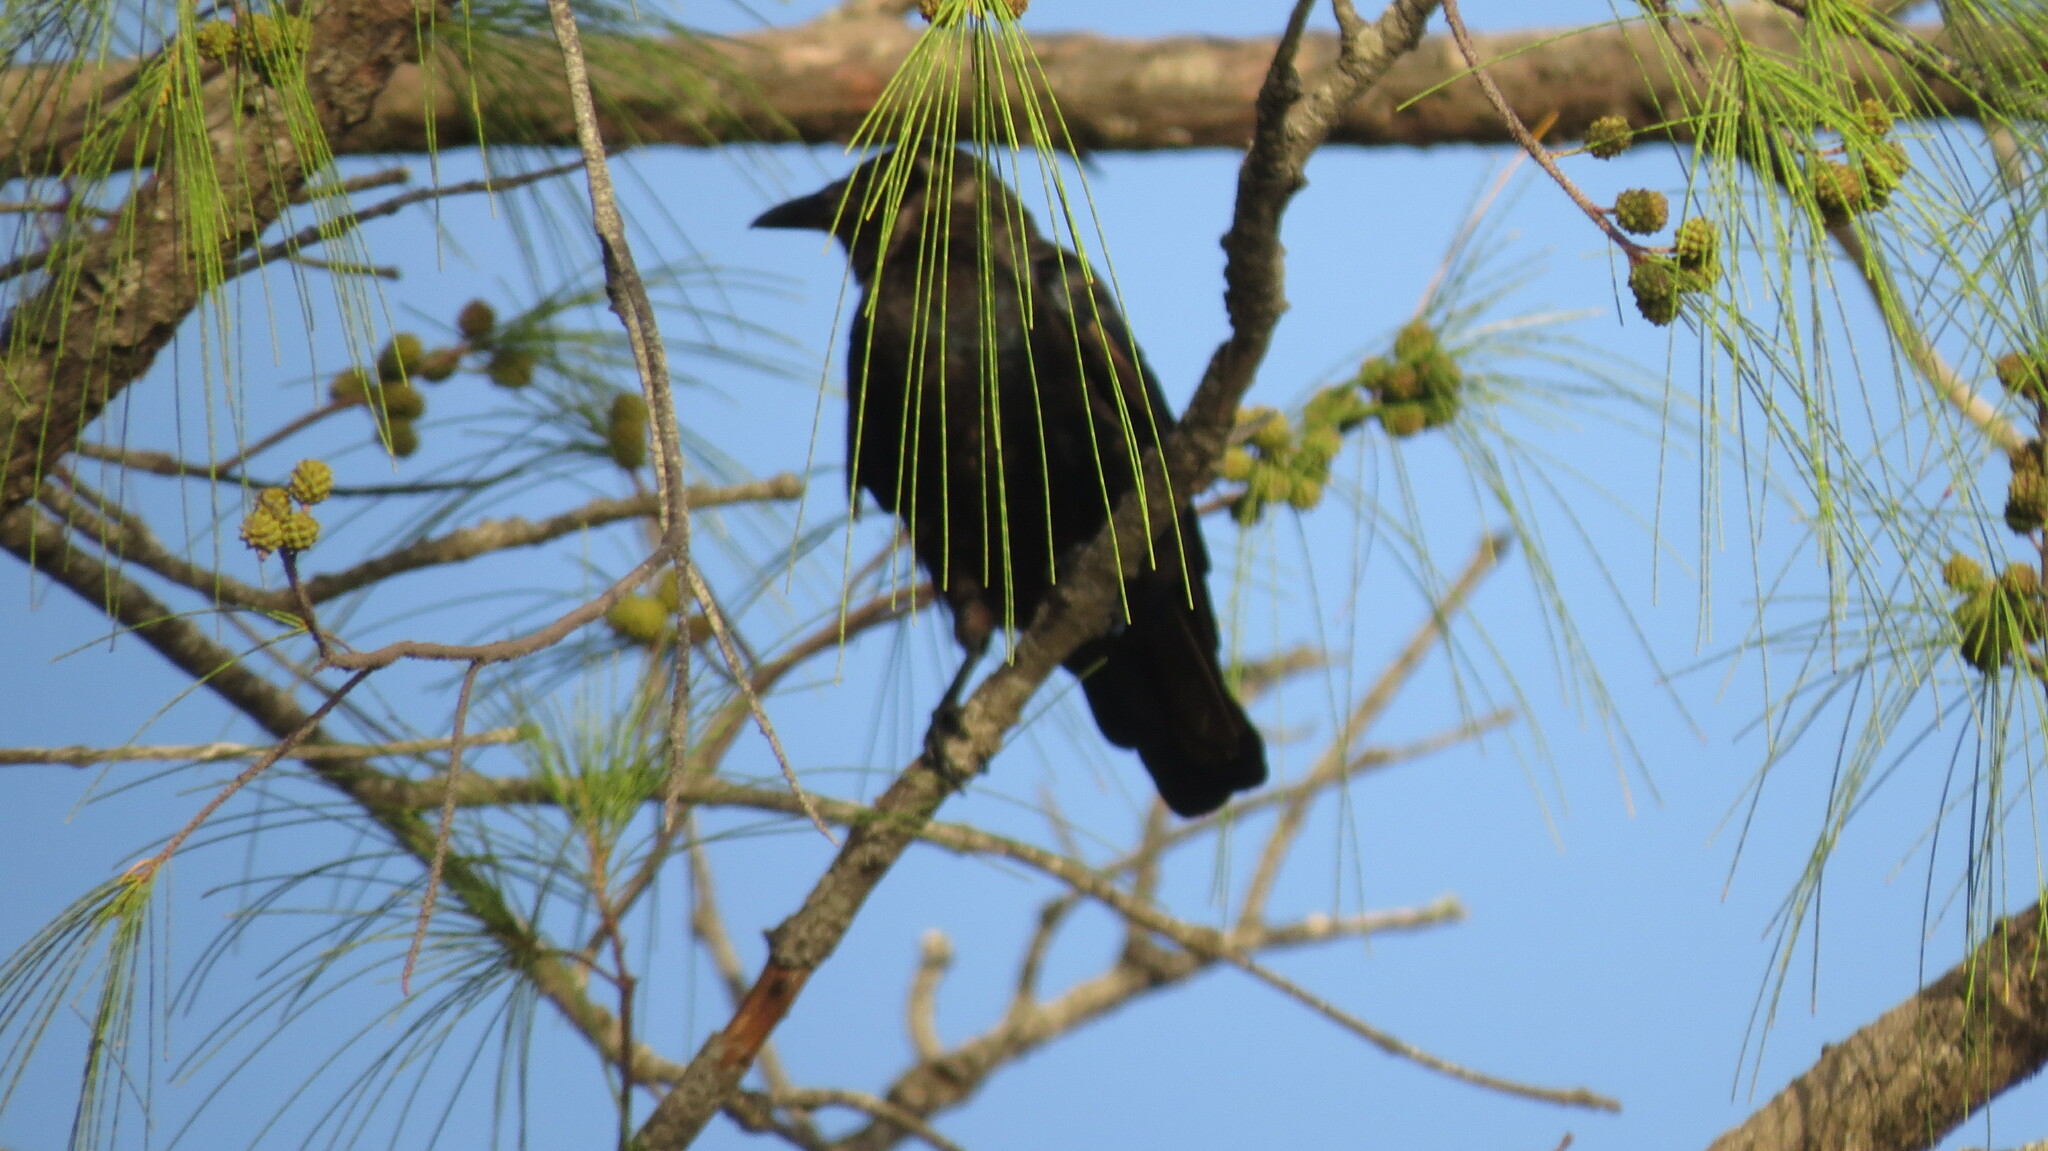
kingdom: Animalia
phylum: Chordata
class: Aves
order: Passeriformes
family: Corvidae
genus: Corvus
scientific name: Corvus ossifragus
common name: Fish crow
